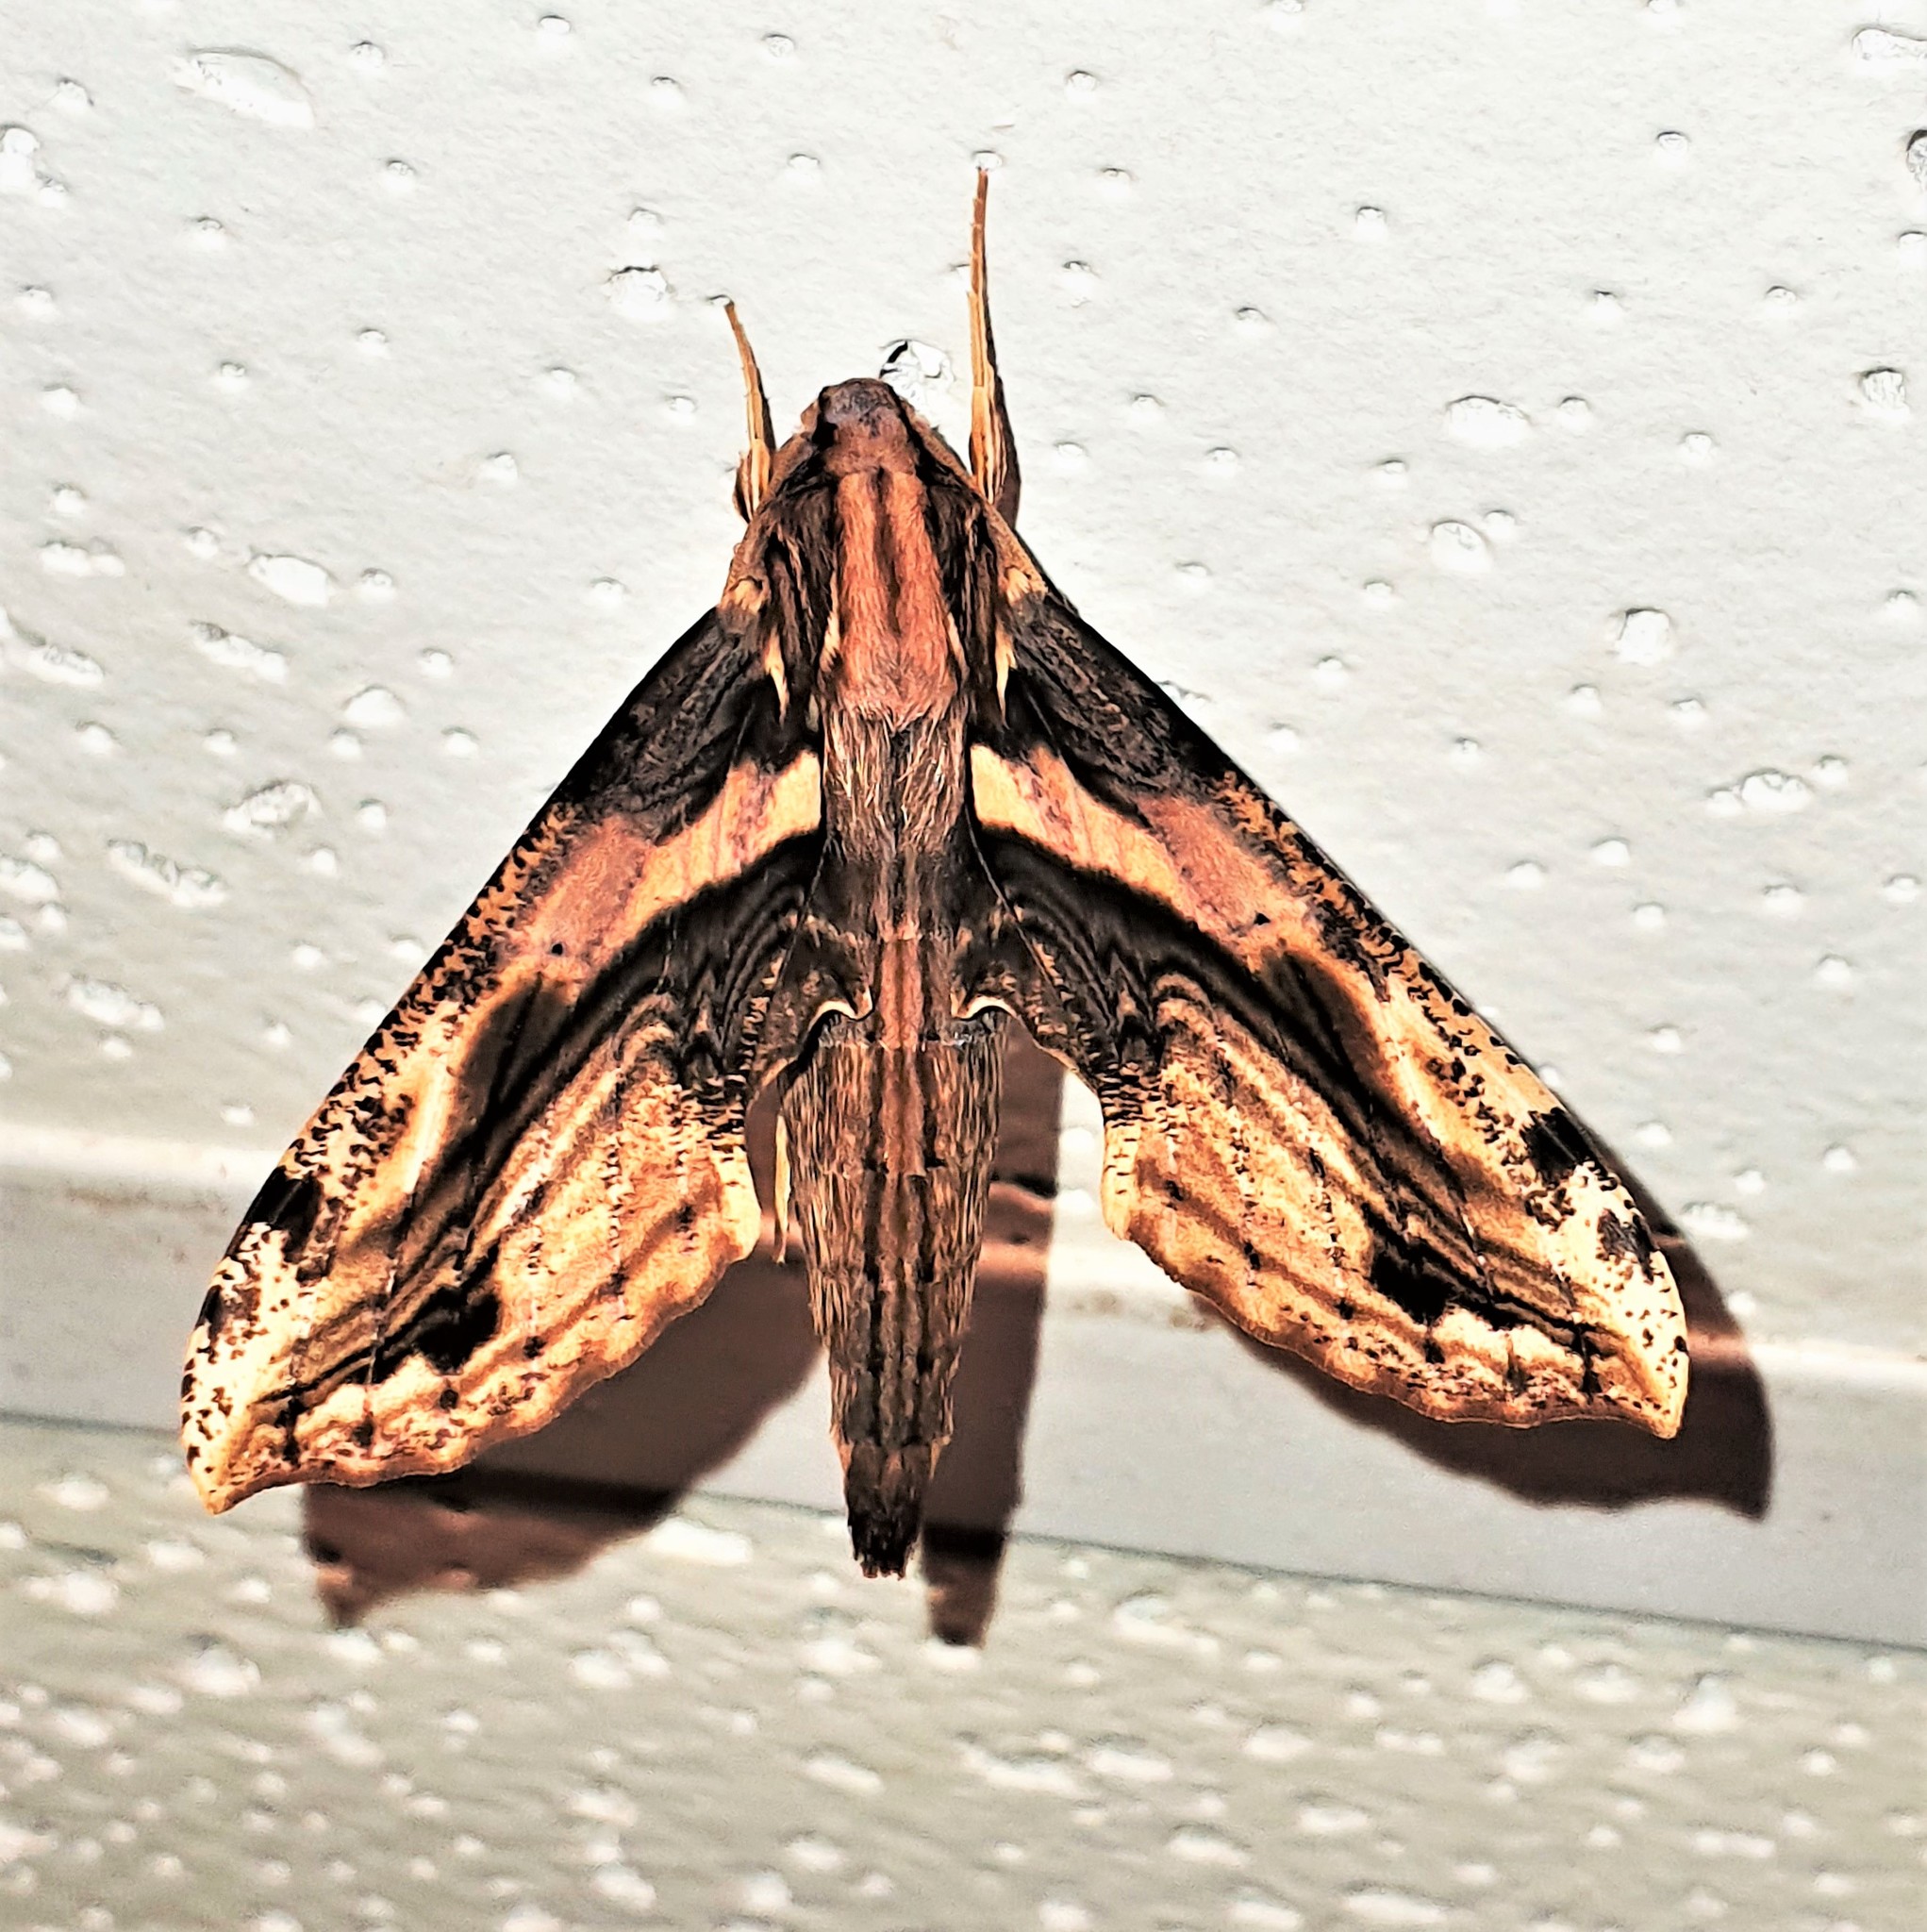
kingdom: Animalia
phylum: Arthropoda
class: Insecta
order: Lepidoptera
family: Sphingidae
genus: Xylophanes
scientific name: Xylophanes ceratomioides
